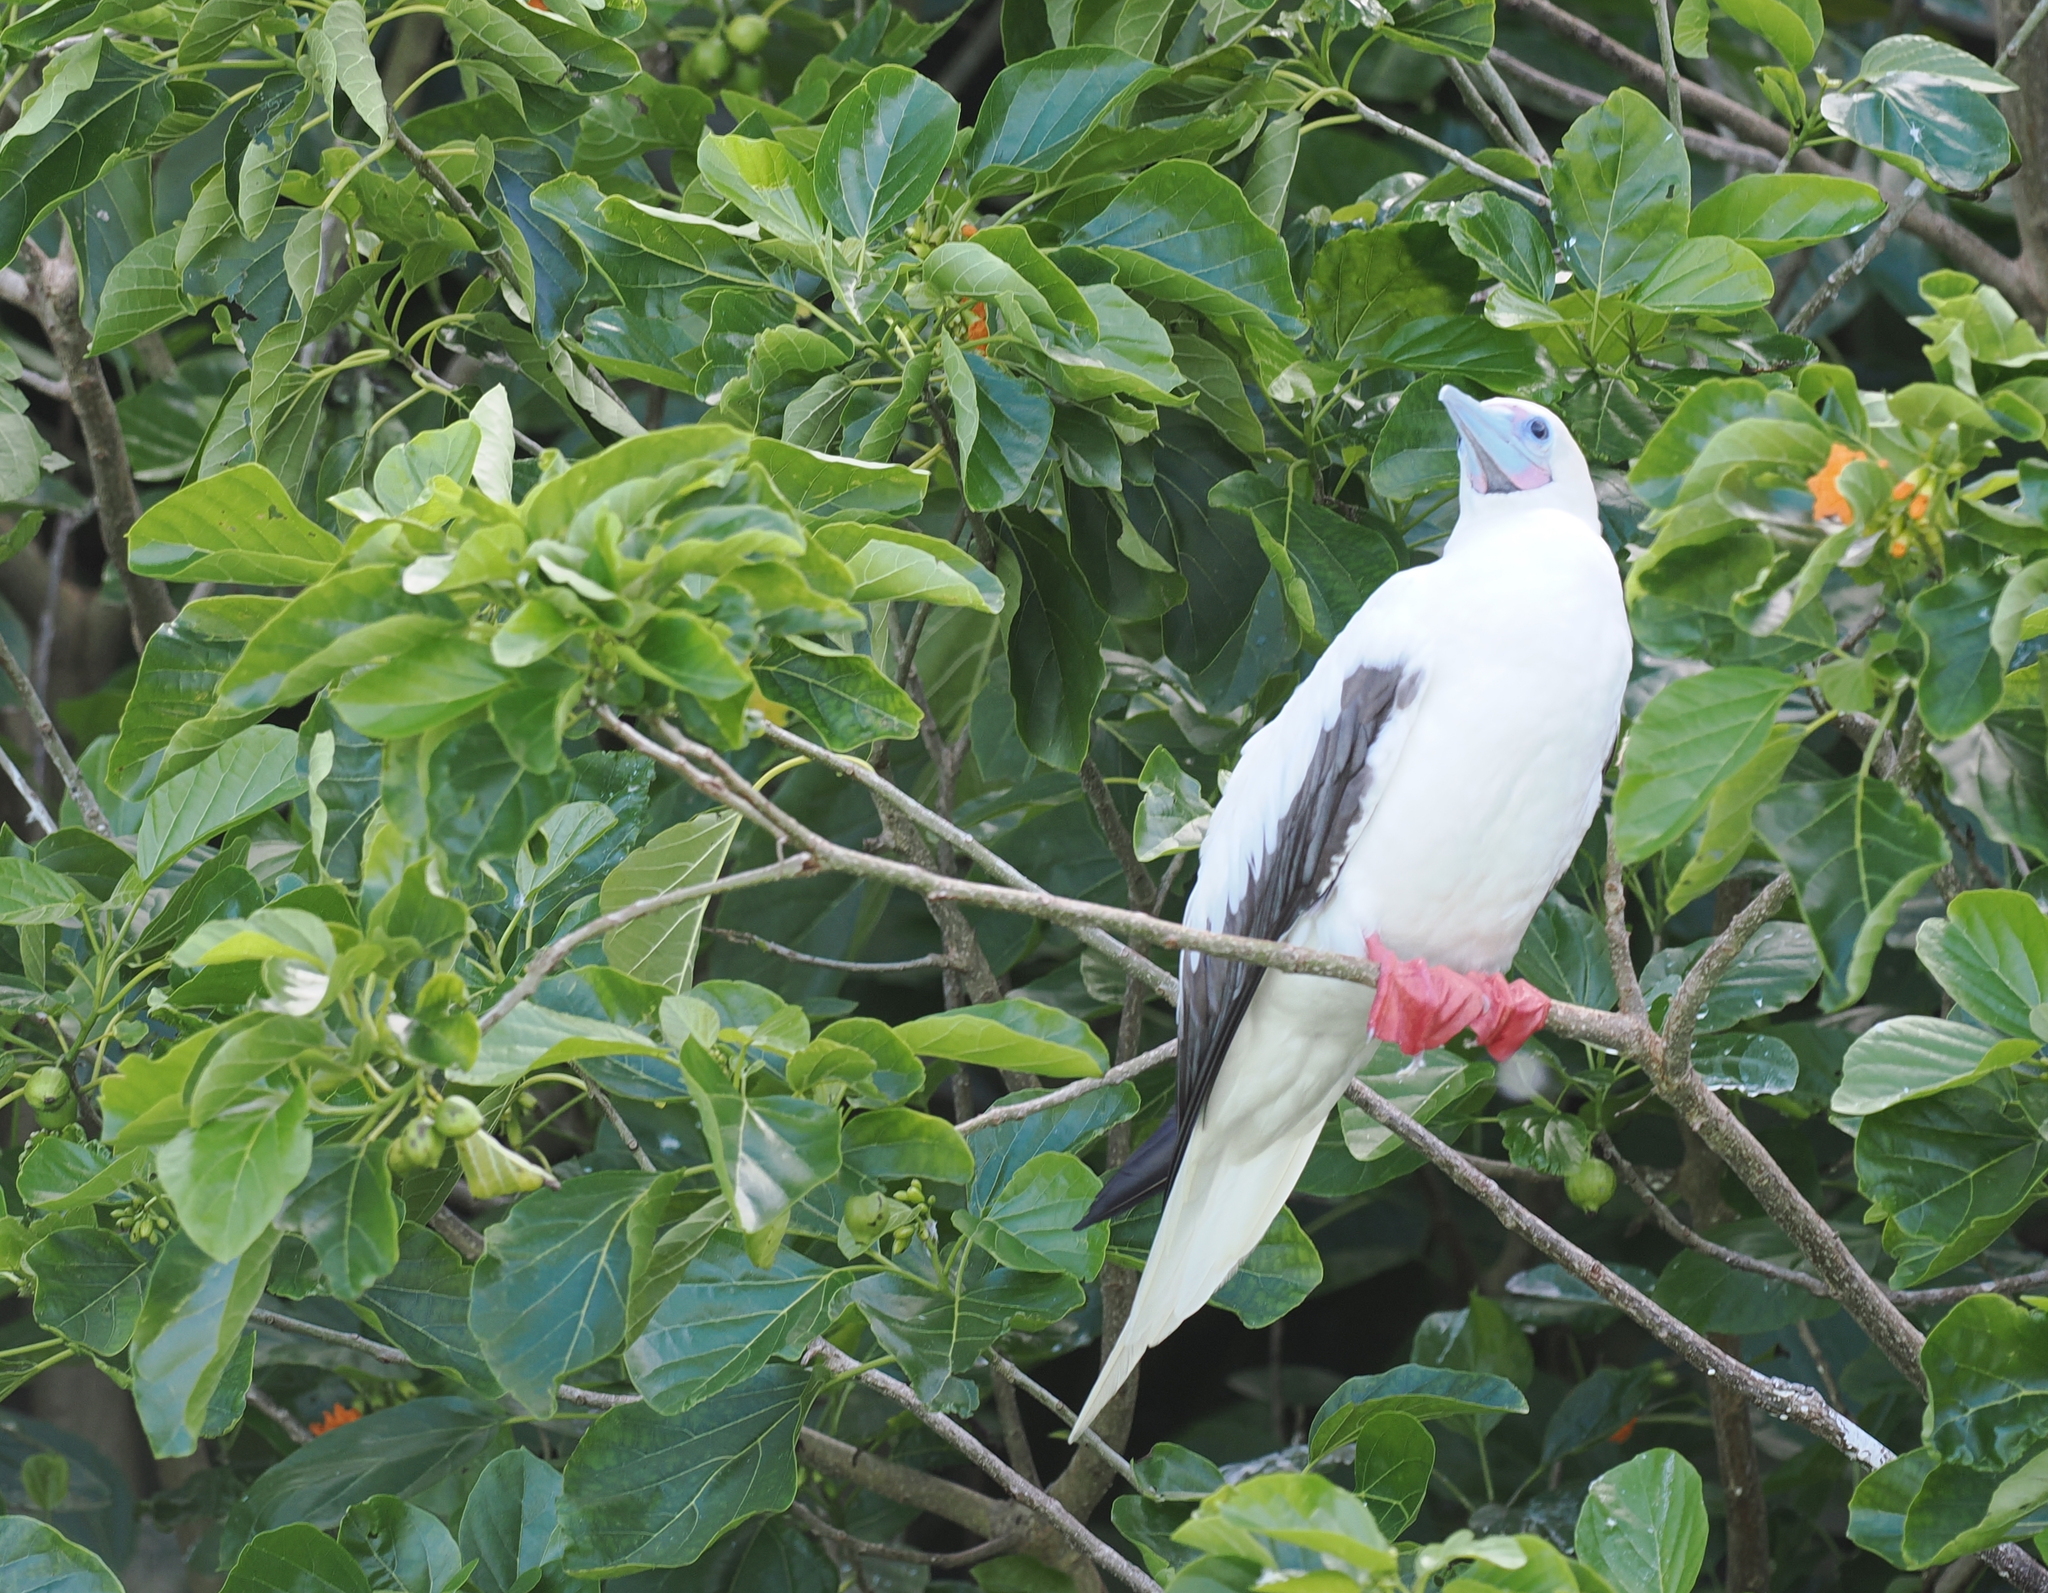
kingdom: Animalia
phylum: Chordata
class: Aves
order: Suliformes
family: Sulidae
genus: Sula
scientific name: Sula sula
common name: Red-footed booby
